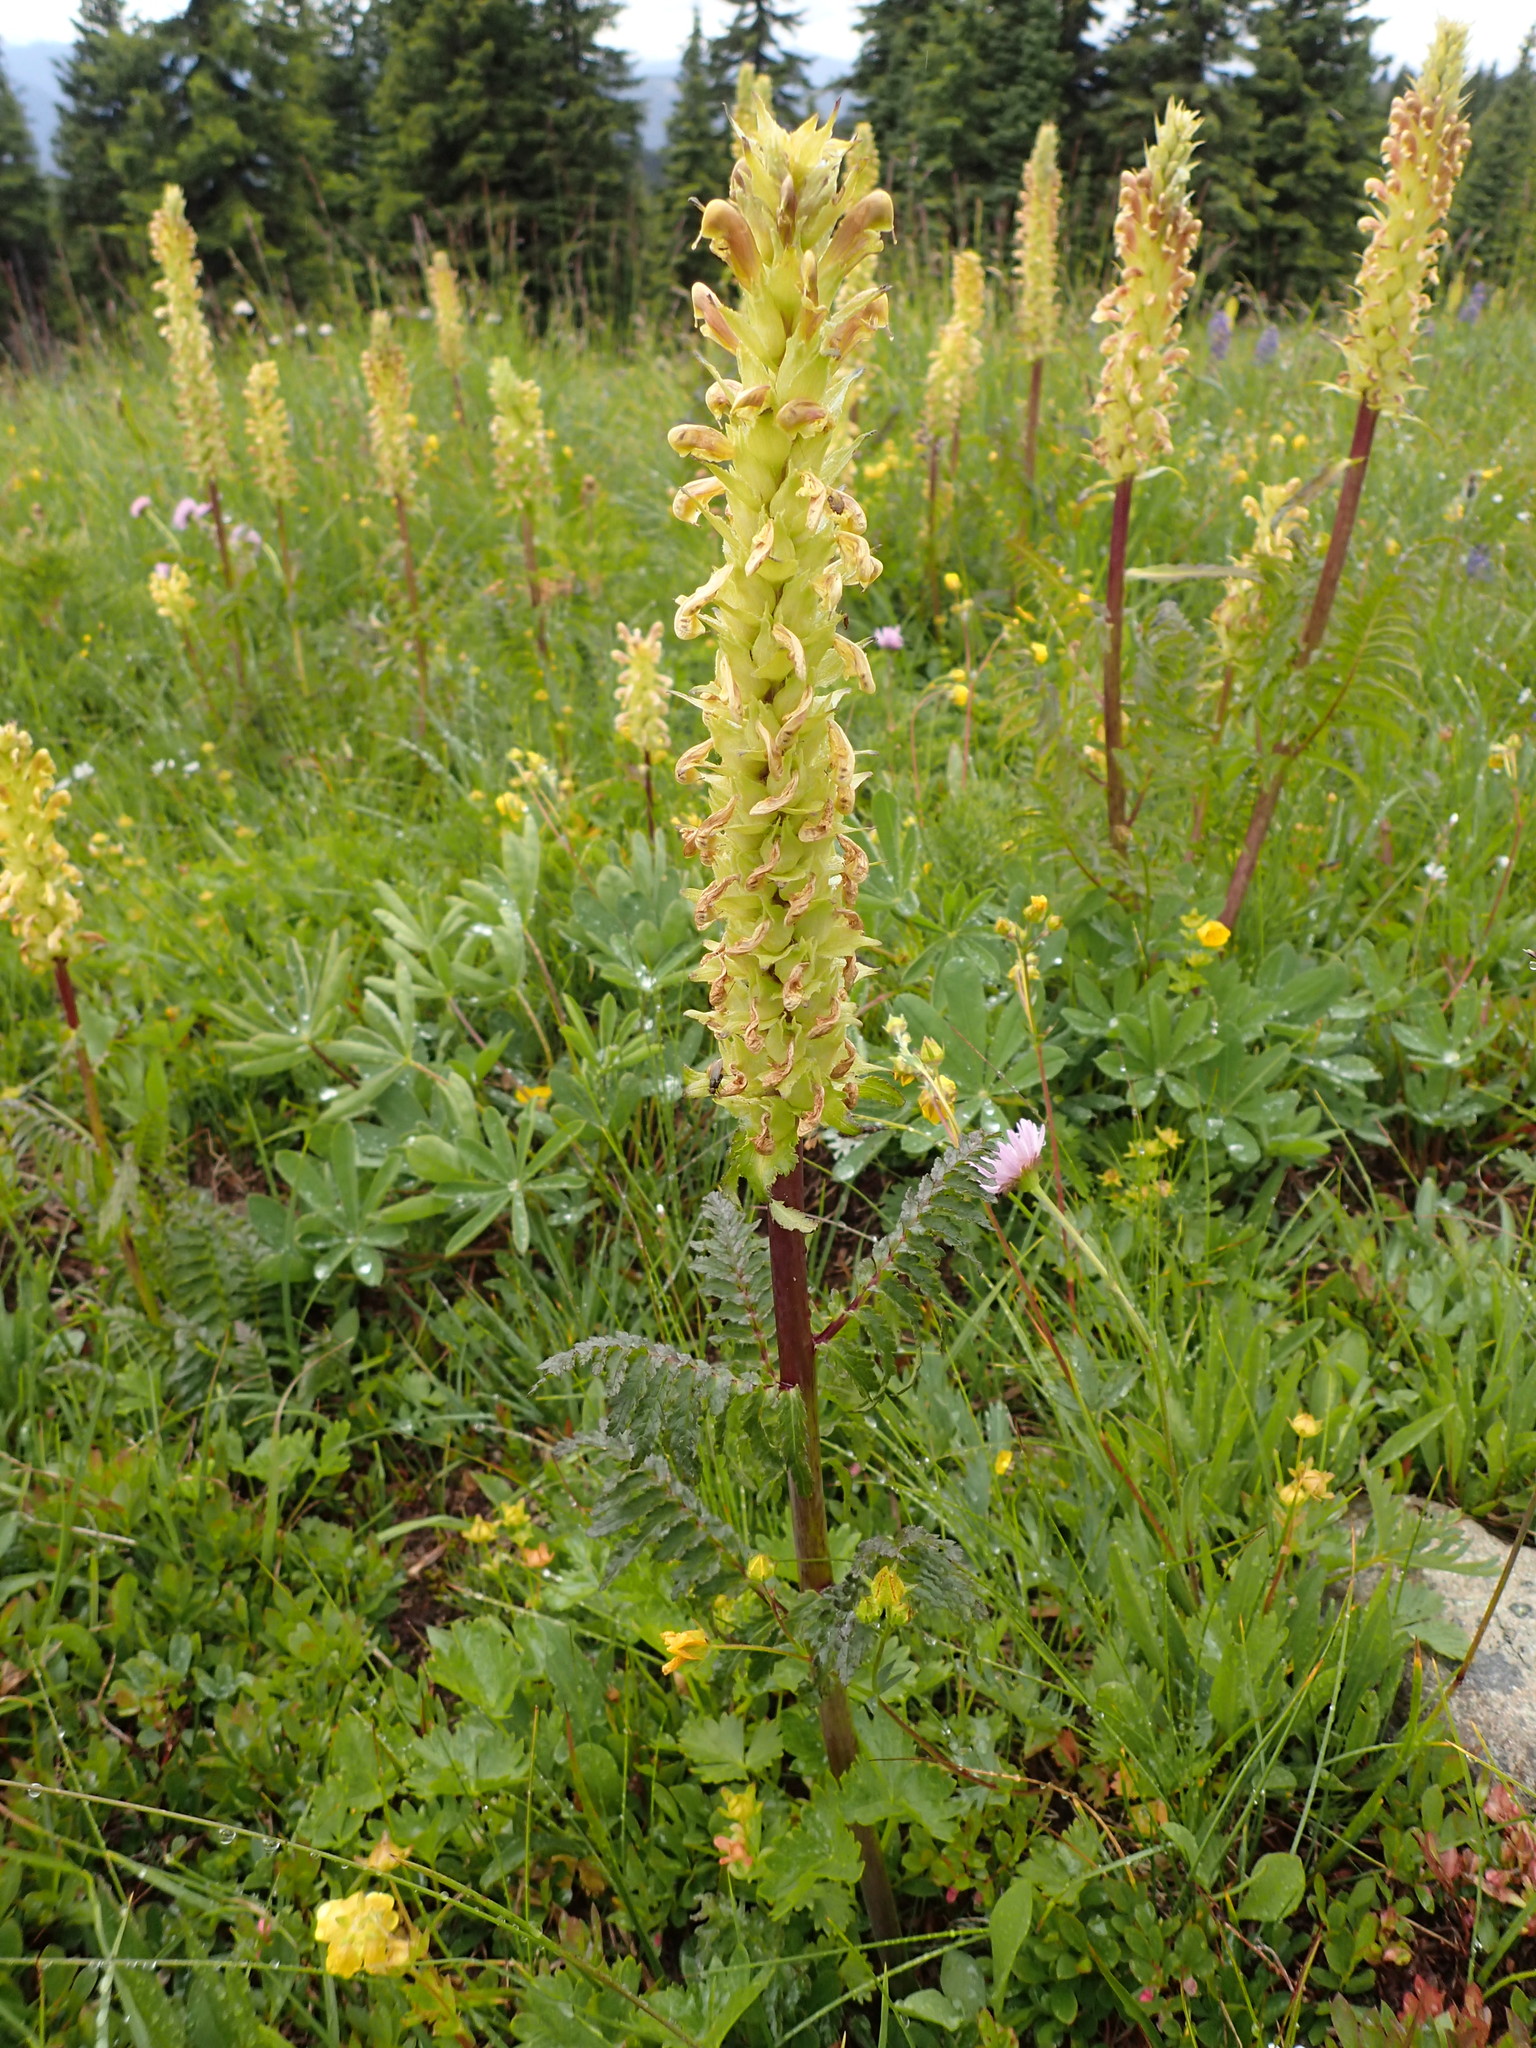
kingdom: Plantae
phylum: Tracheophyta
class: Magnoliopsida
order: Lamiales
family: Orobanchaceae
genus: Pedicularis
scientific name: Pedicularis bracteosa
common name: Bracted lousewort
